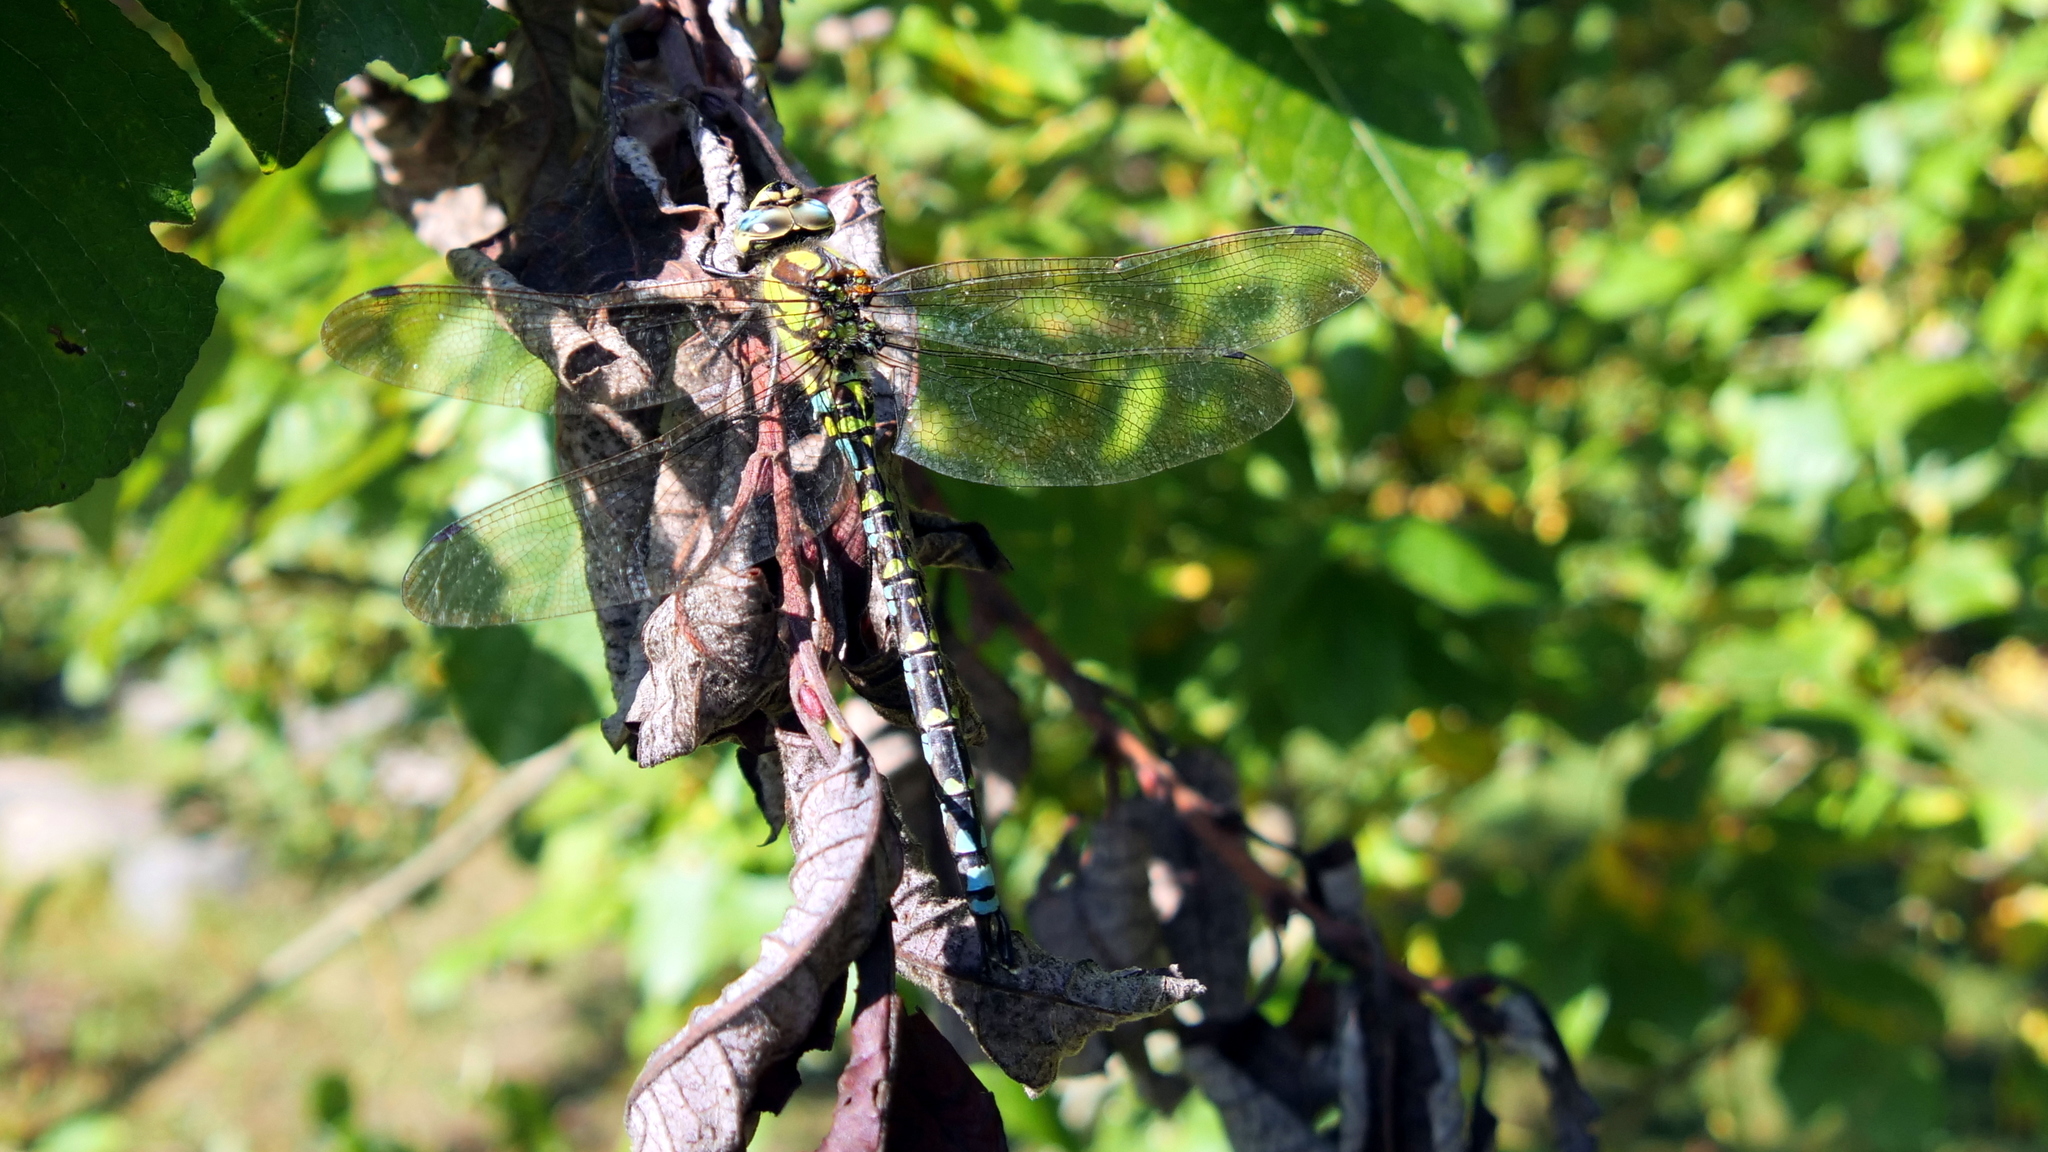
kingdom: Animalia
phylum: Arthropoda
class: Insecta
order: Odonata
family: Aeshnidae
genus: Aeshna
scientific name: Aeshna cyanea
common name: Southern hawker
